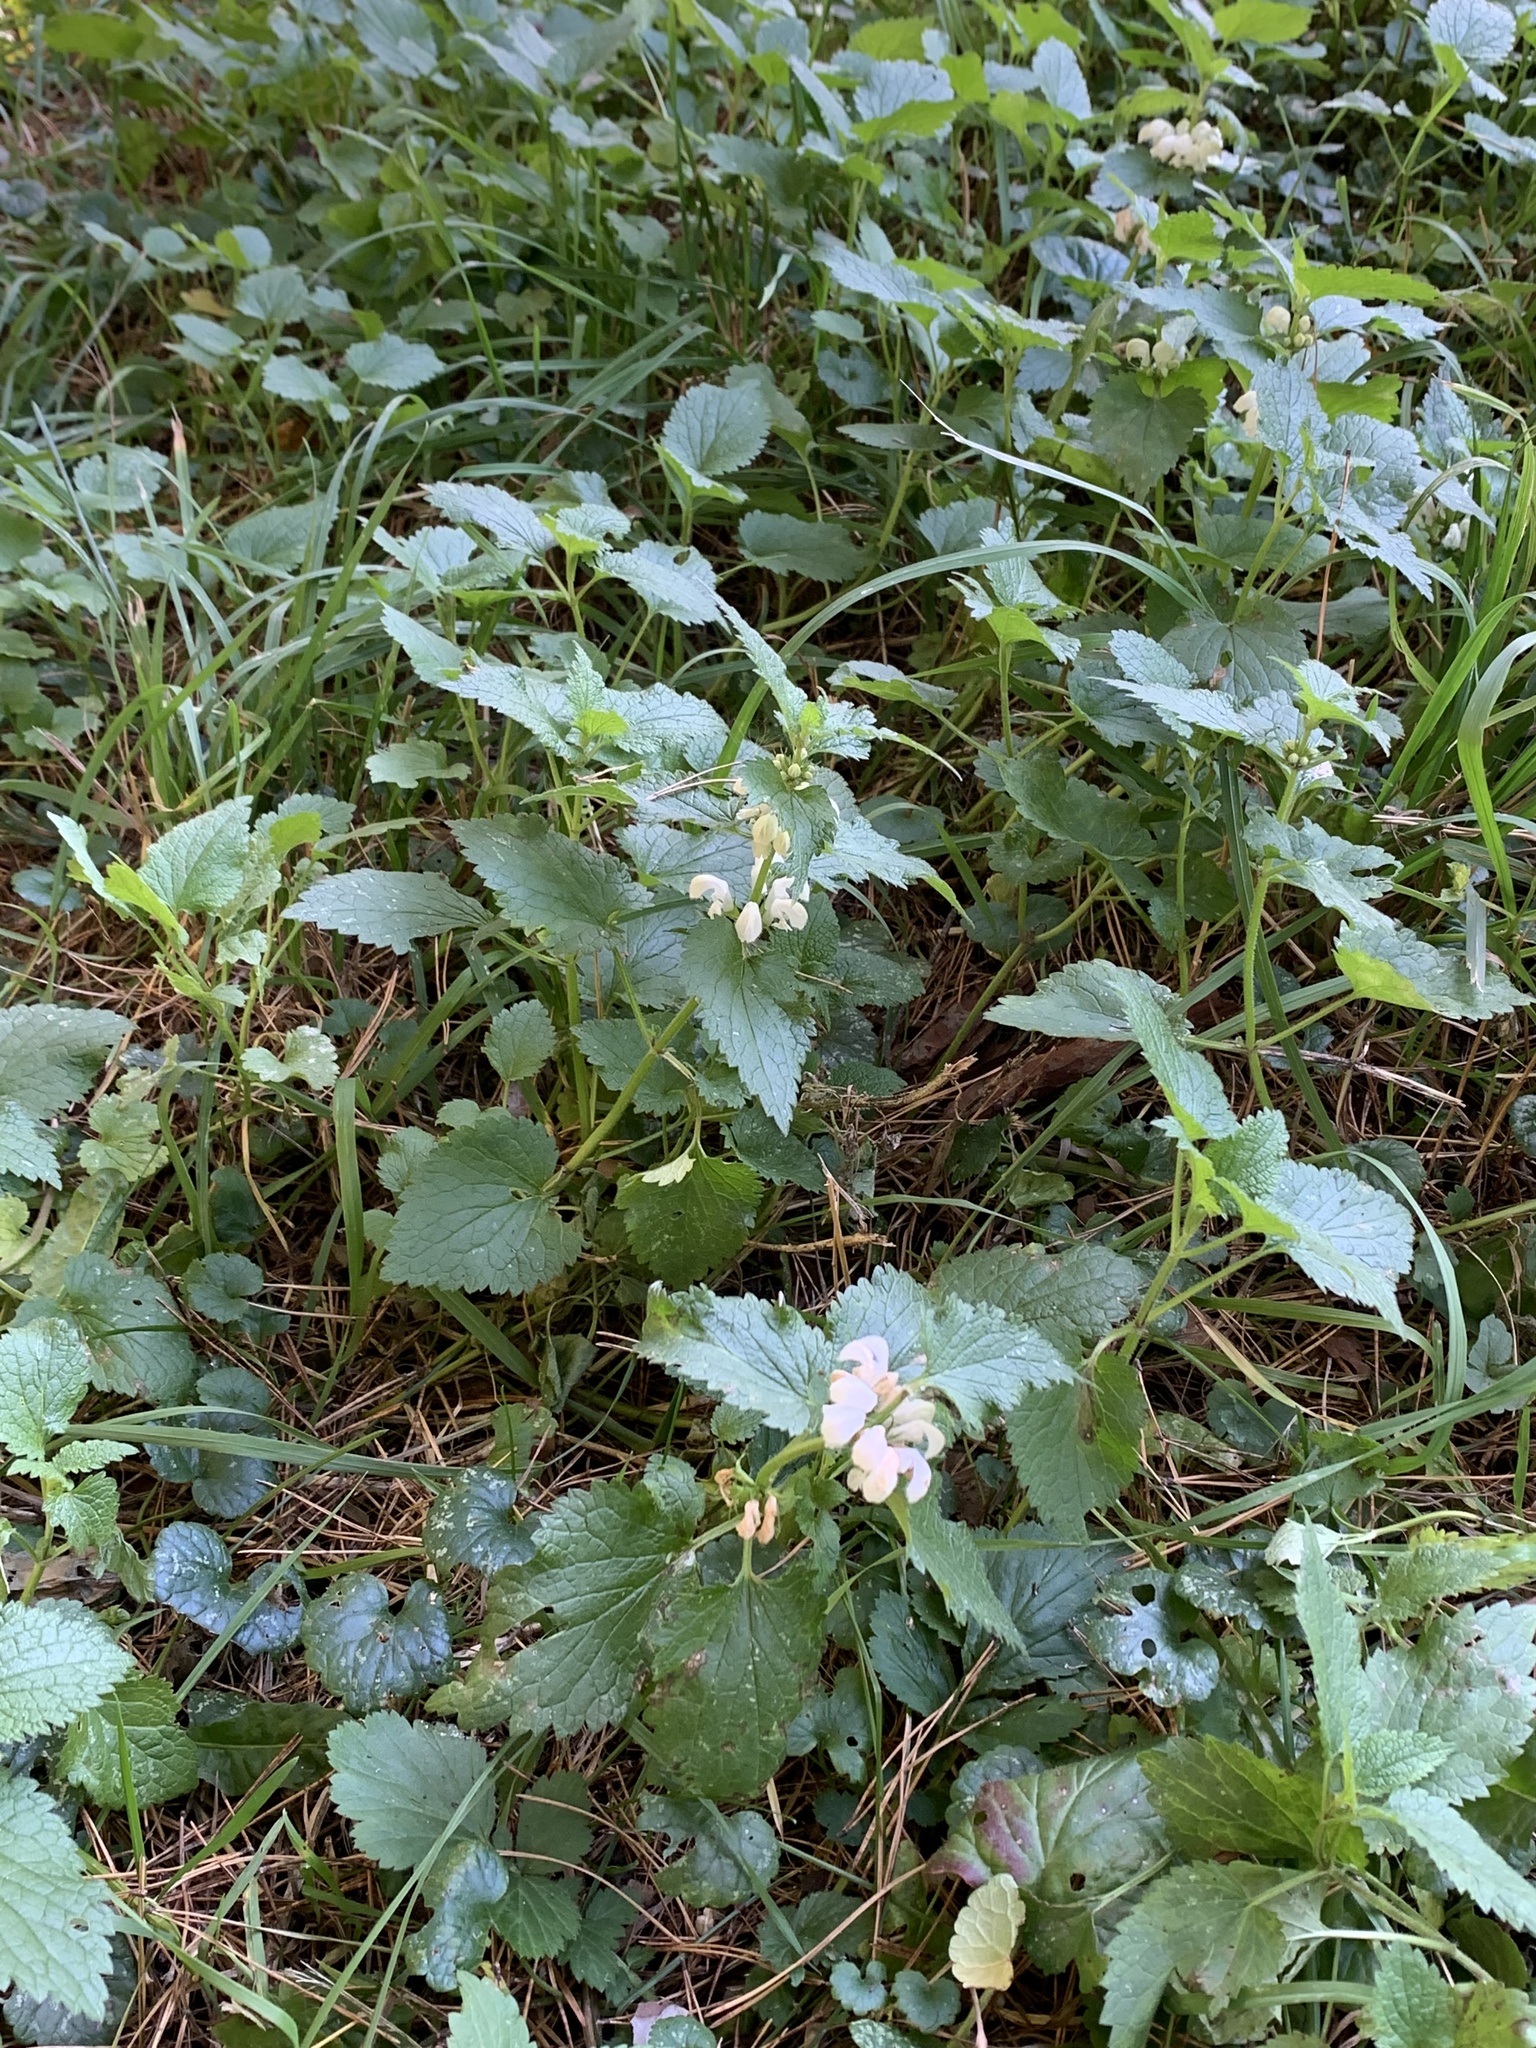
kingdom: Plantae
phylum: Tracheophyta
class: Magnoliopsida
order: Lamiales
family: Lamiaceae
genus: Lamium
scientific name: Lamium album
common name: White dead-nettle
